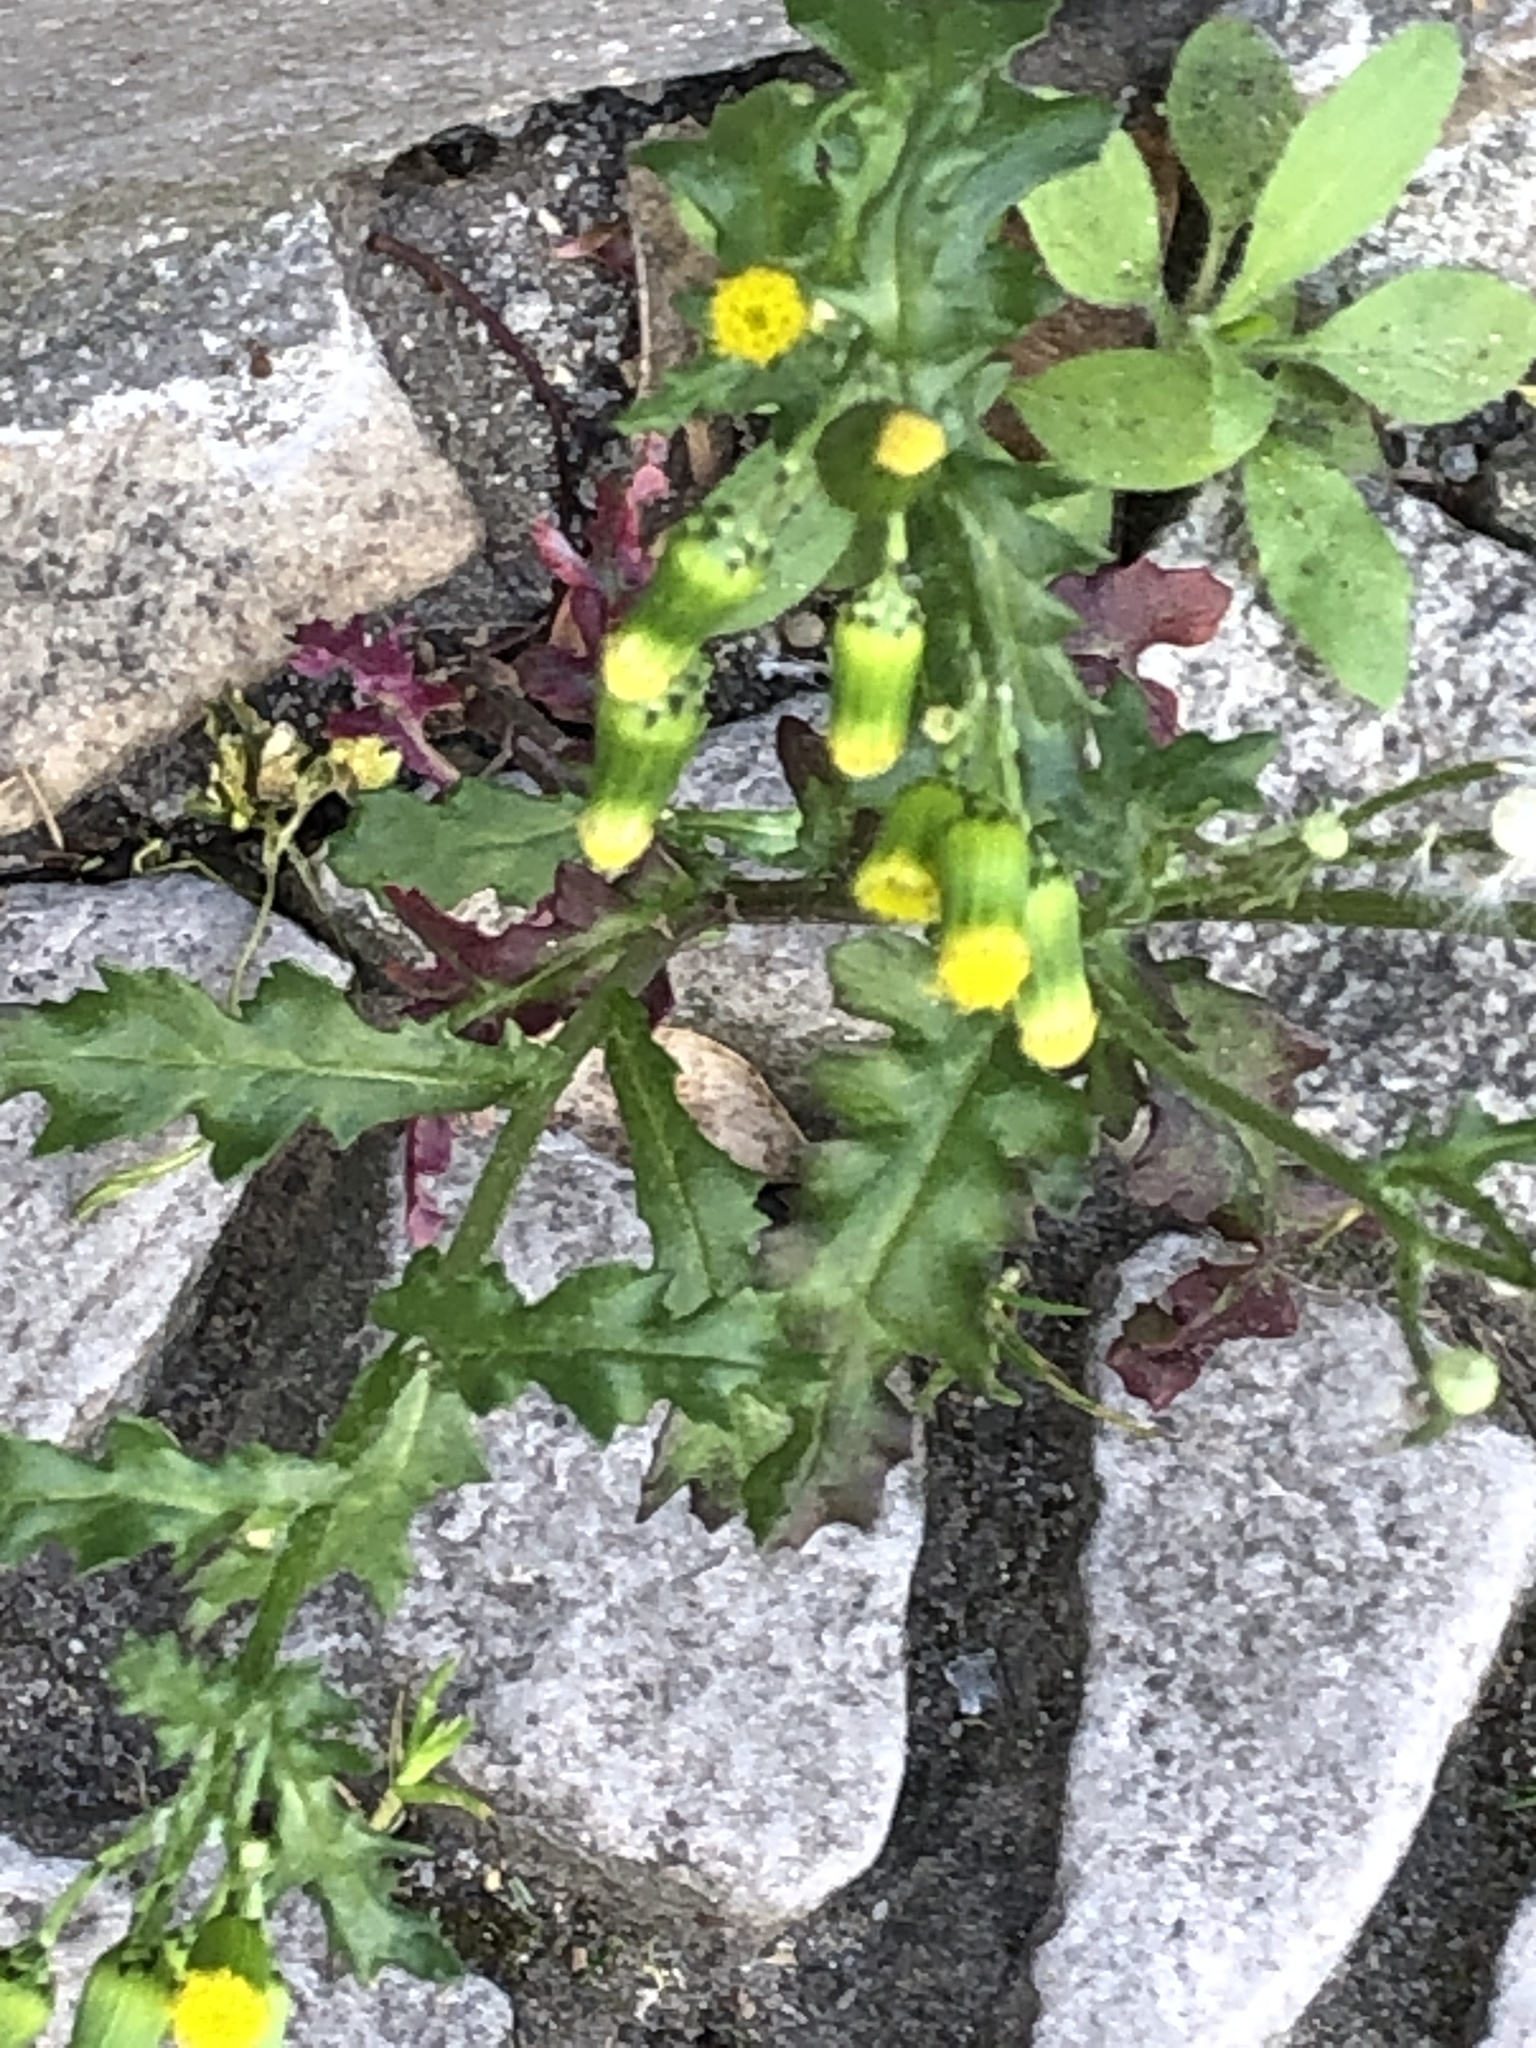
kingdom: Plantae
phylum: Tracheophyta
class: Magnoliopsida
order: Asterales
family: Asteraceae
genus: Senecio
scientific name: Senecio vulgaris
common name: Old-man-in-the-spring
